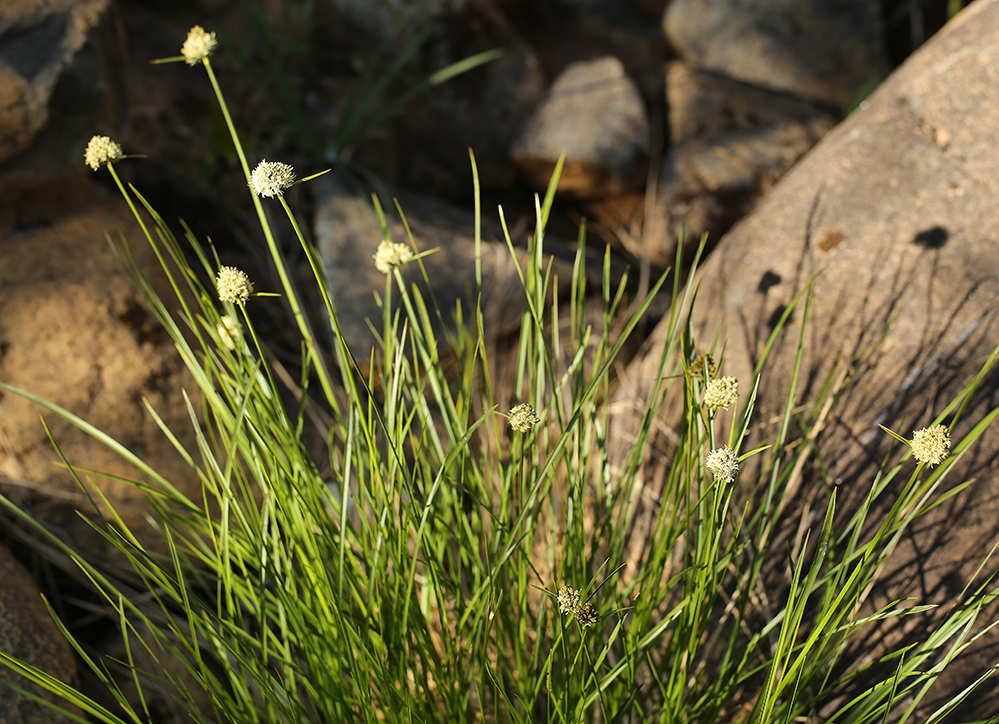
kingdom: Plantae
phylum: Tracheophyta
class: Liliopsida
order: Poales
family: Cyperaceae
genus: Calliscirpus
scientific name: Calliscirpus criniger
